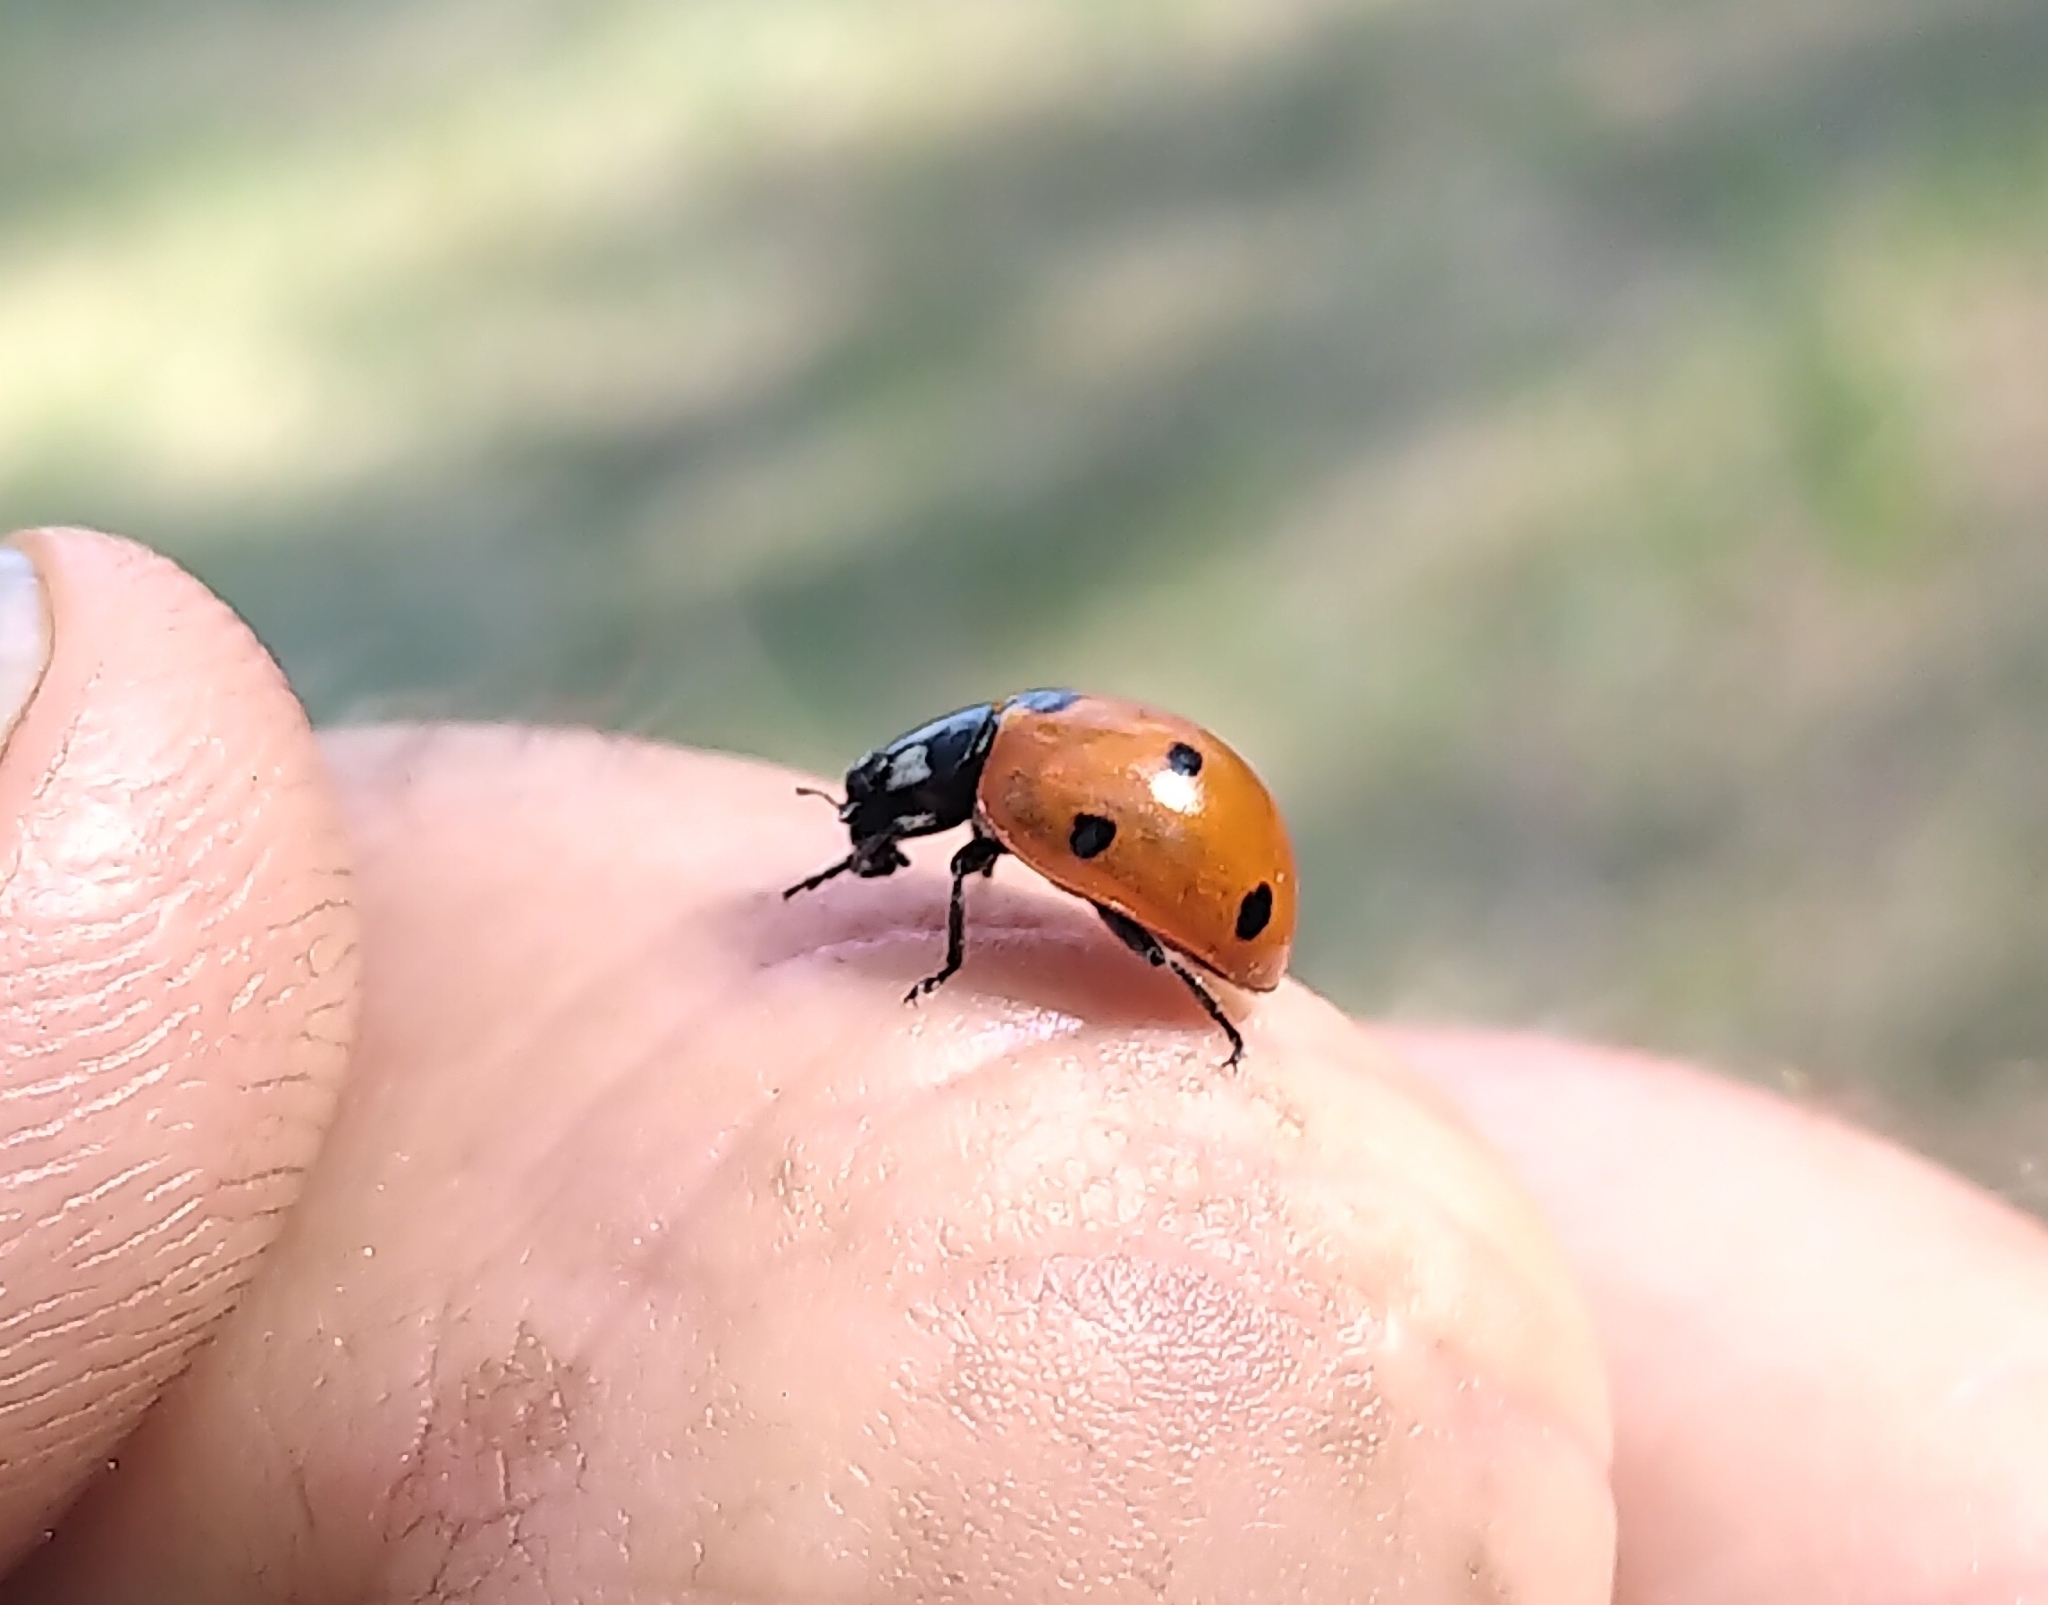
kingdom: Animalia
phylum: Arthropoda
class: Insecta
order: Coleoptera
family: Coccinellidae
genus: Coccinella
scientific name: Coccinella septempunctata
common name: Sevenspotted lady beetle
